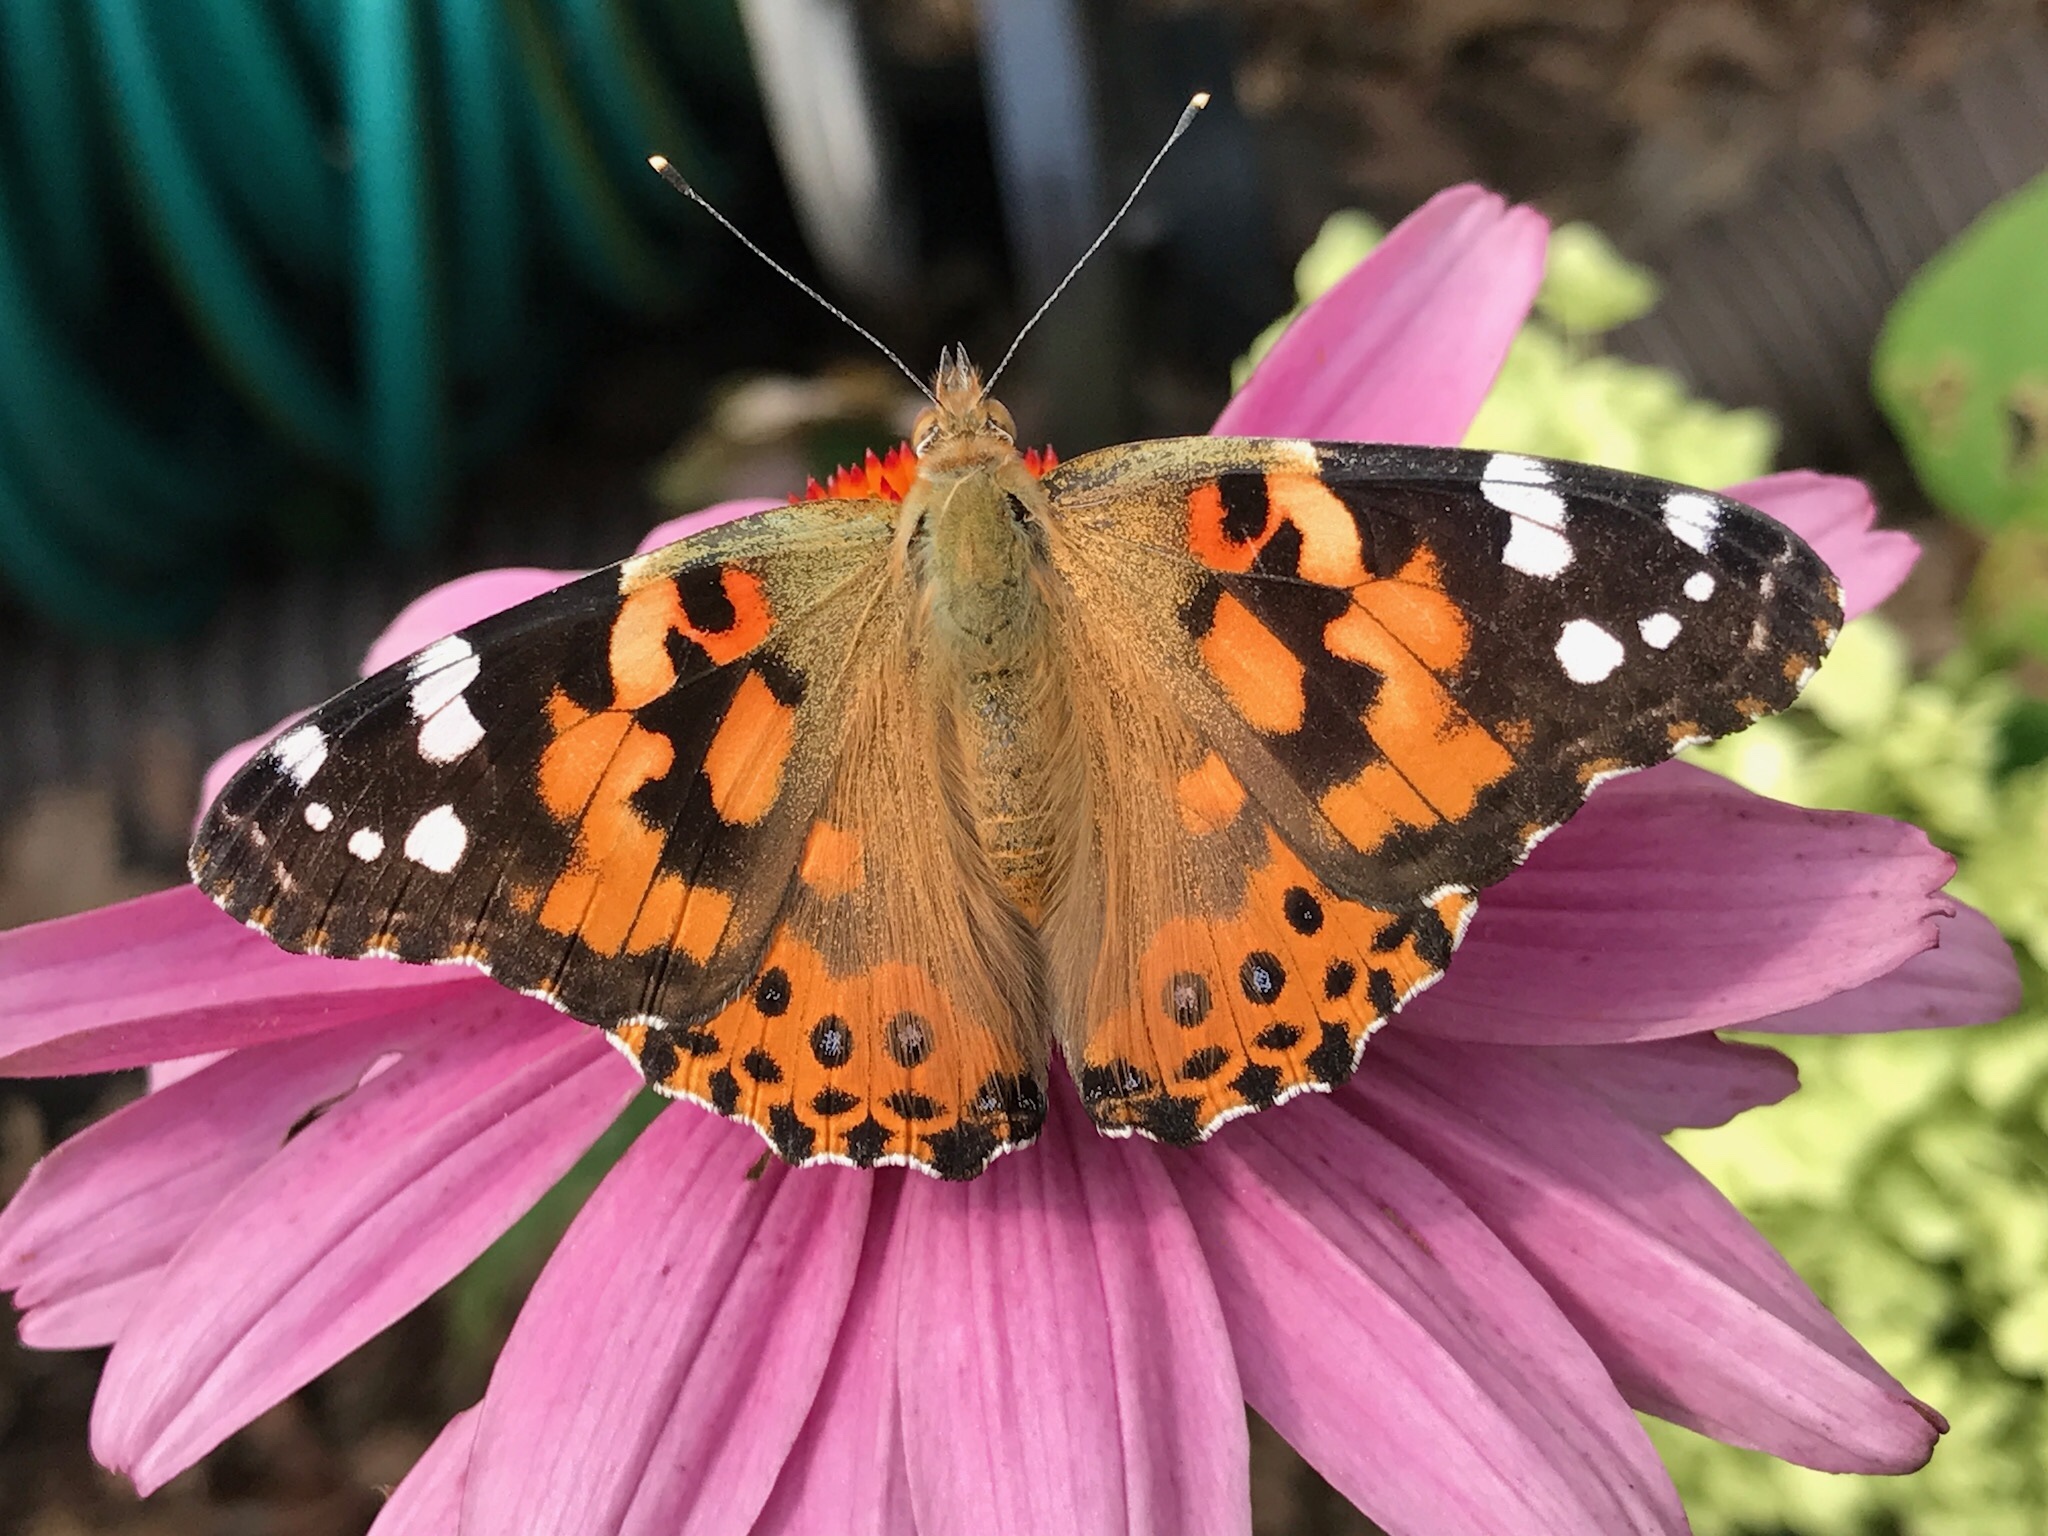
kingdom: Animalia
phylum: Arthropoda
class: Insecta
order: Lepidoptera
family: Nymphalidae
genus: Vanessa
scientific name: Vanessa cardui
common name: Painted lady
